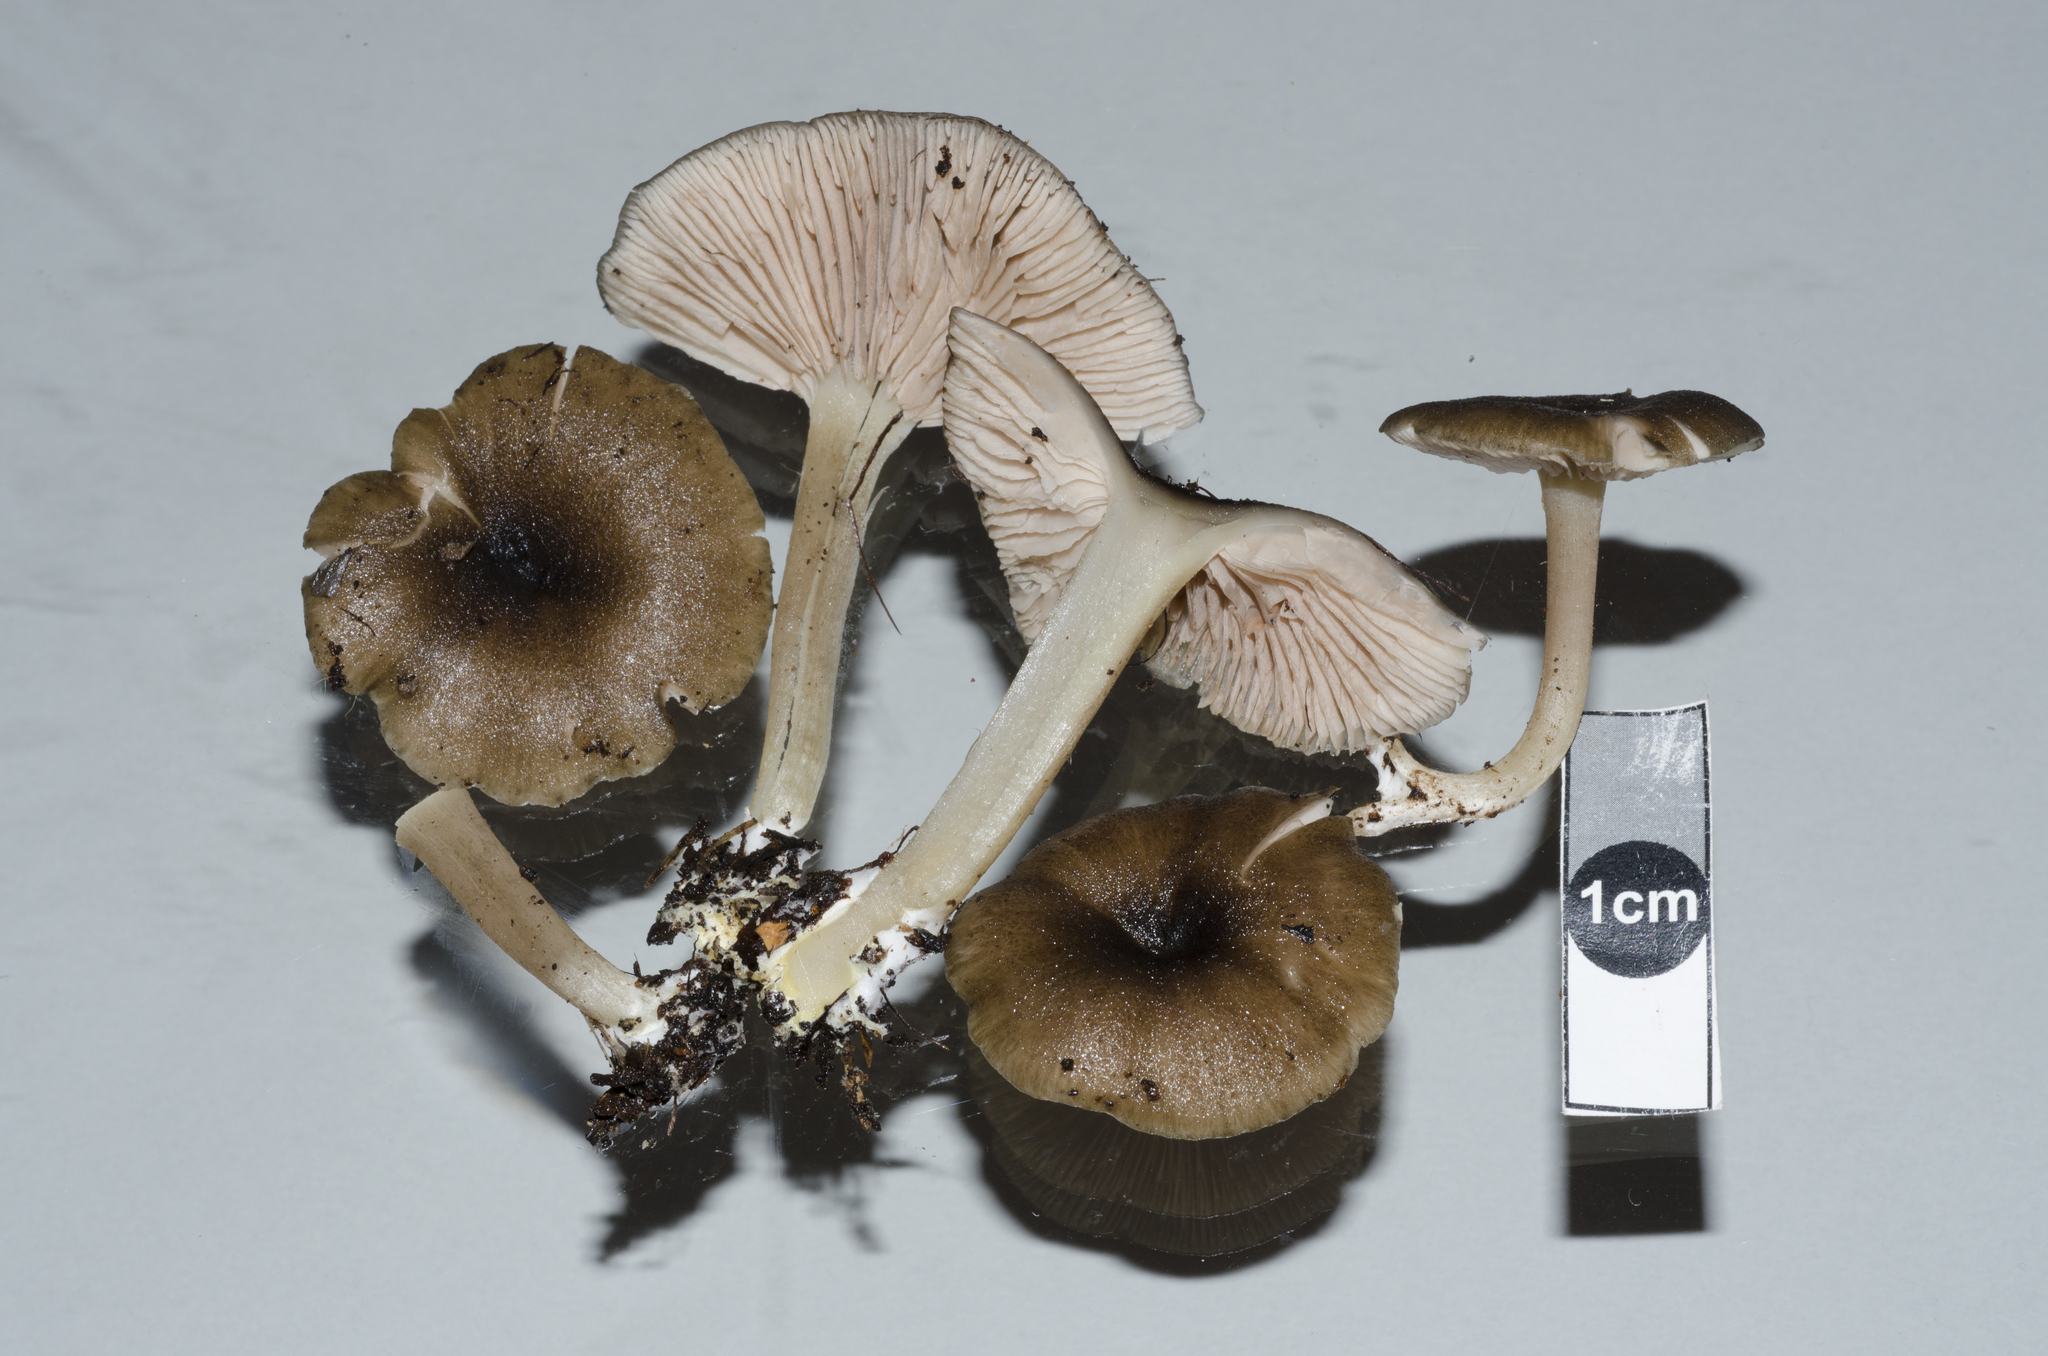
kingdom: Fungi
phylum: Basidiomycota
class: Agaricomycetes
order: Agaricales
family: Entolomataceae
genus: Entoloma
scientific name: Entoloma readiae
